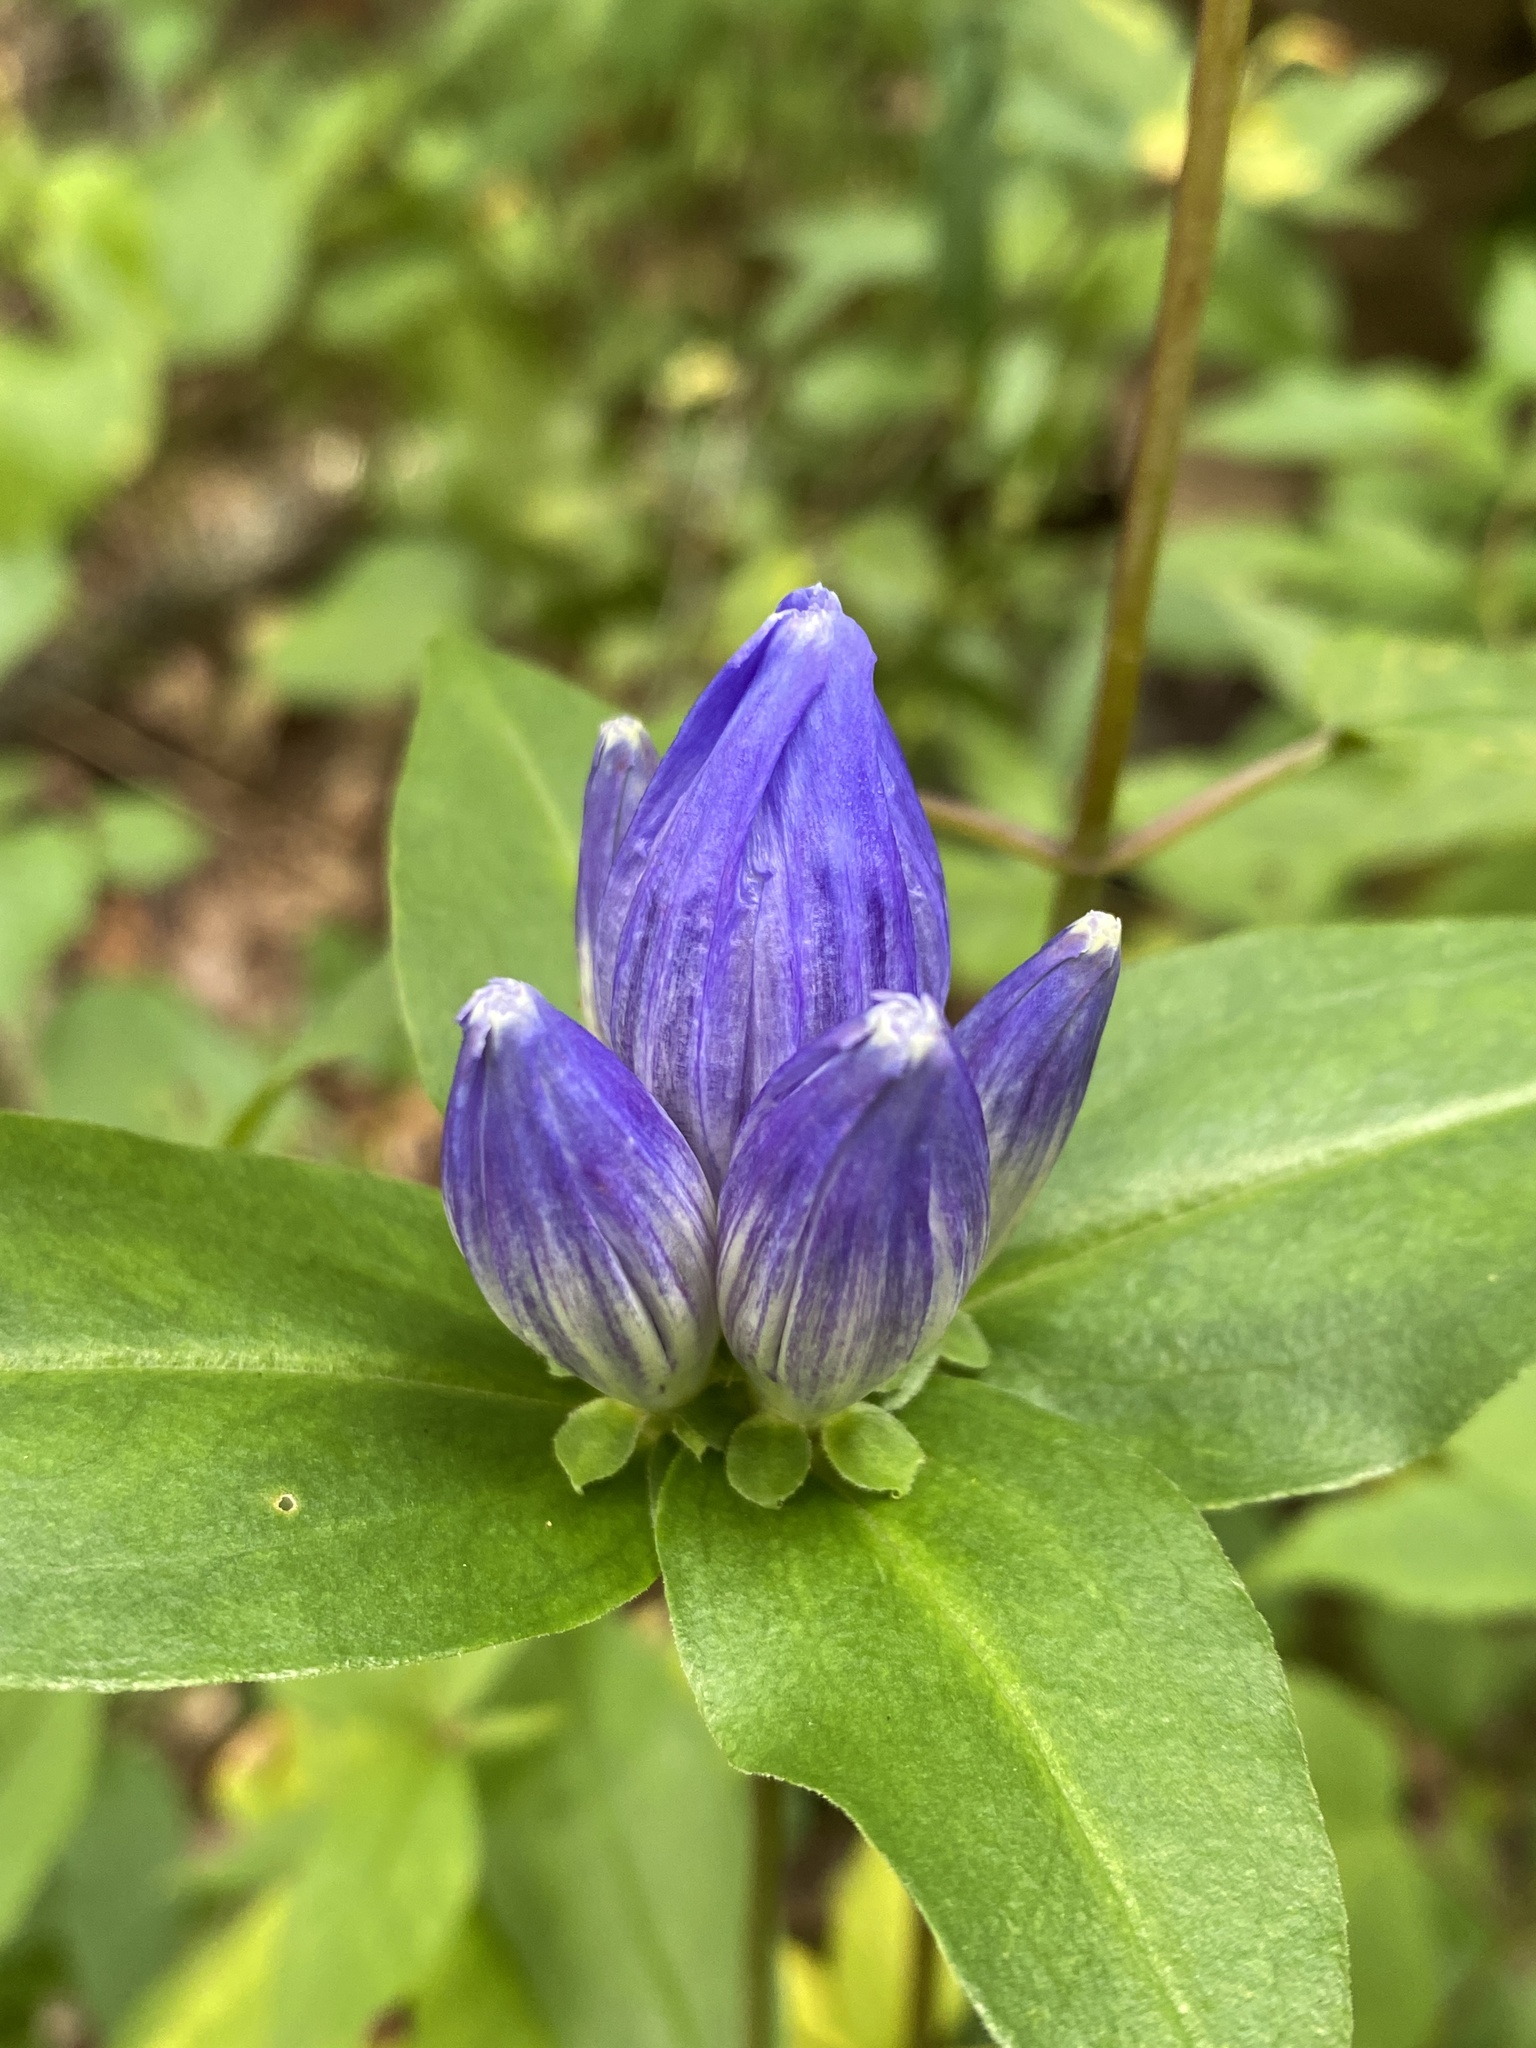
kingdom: Plantae
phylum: Tracheophyta
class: Magnoliopsida
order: Gentianales
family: Gentianaceae
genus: Gentiana
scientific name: Gentiana clausa
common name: Blind gentian
